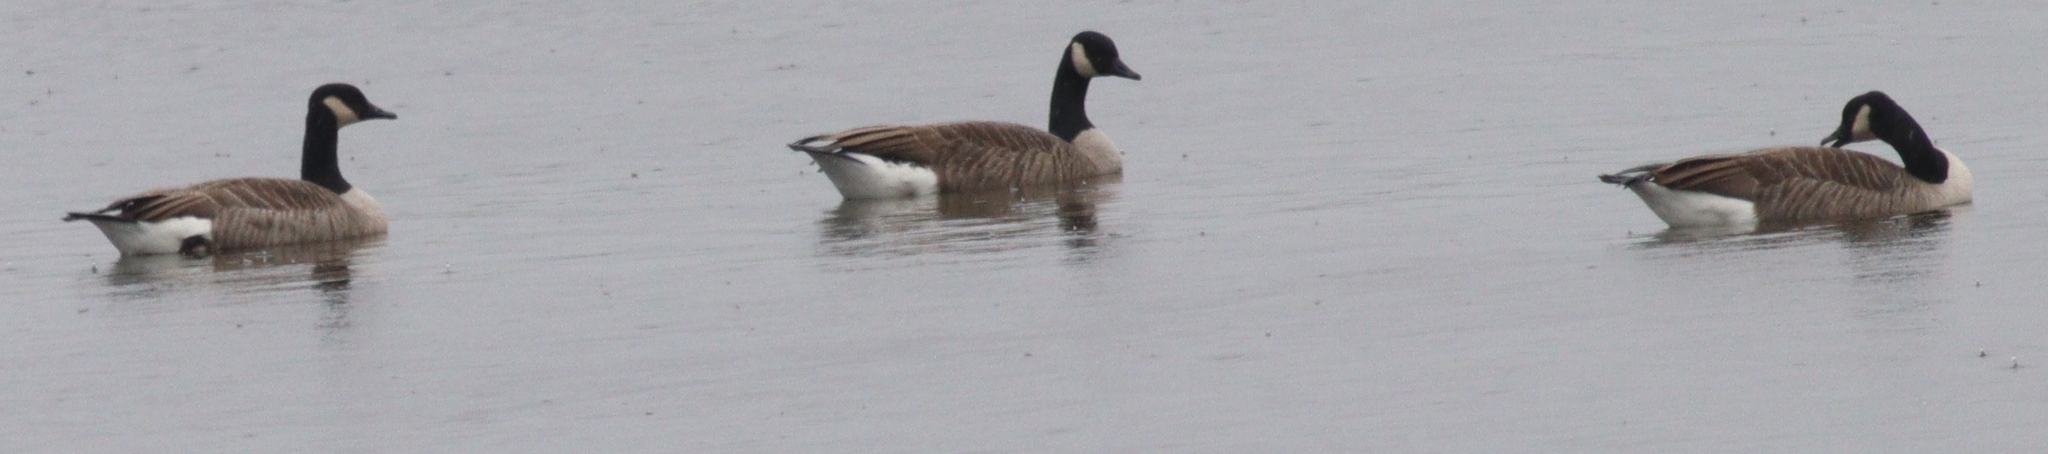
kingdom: Animalia
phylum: Chordata
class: Aves
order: Anseriformes
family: Anatidae
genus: Branta
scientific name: Branta canadensis
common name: Canada goose
